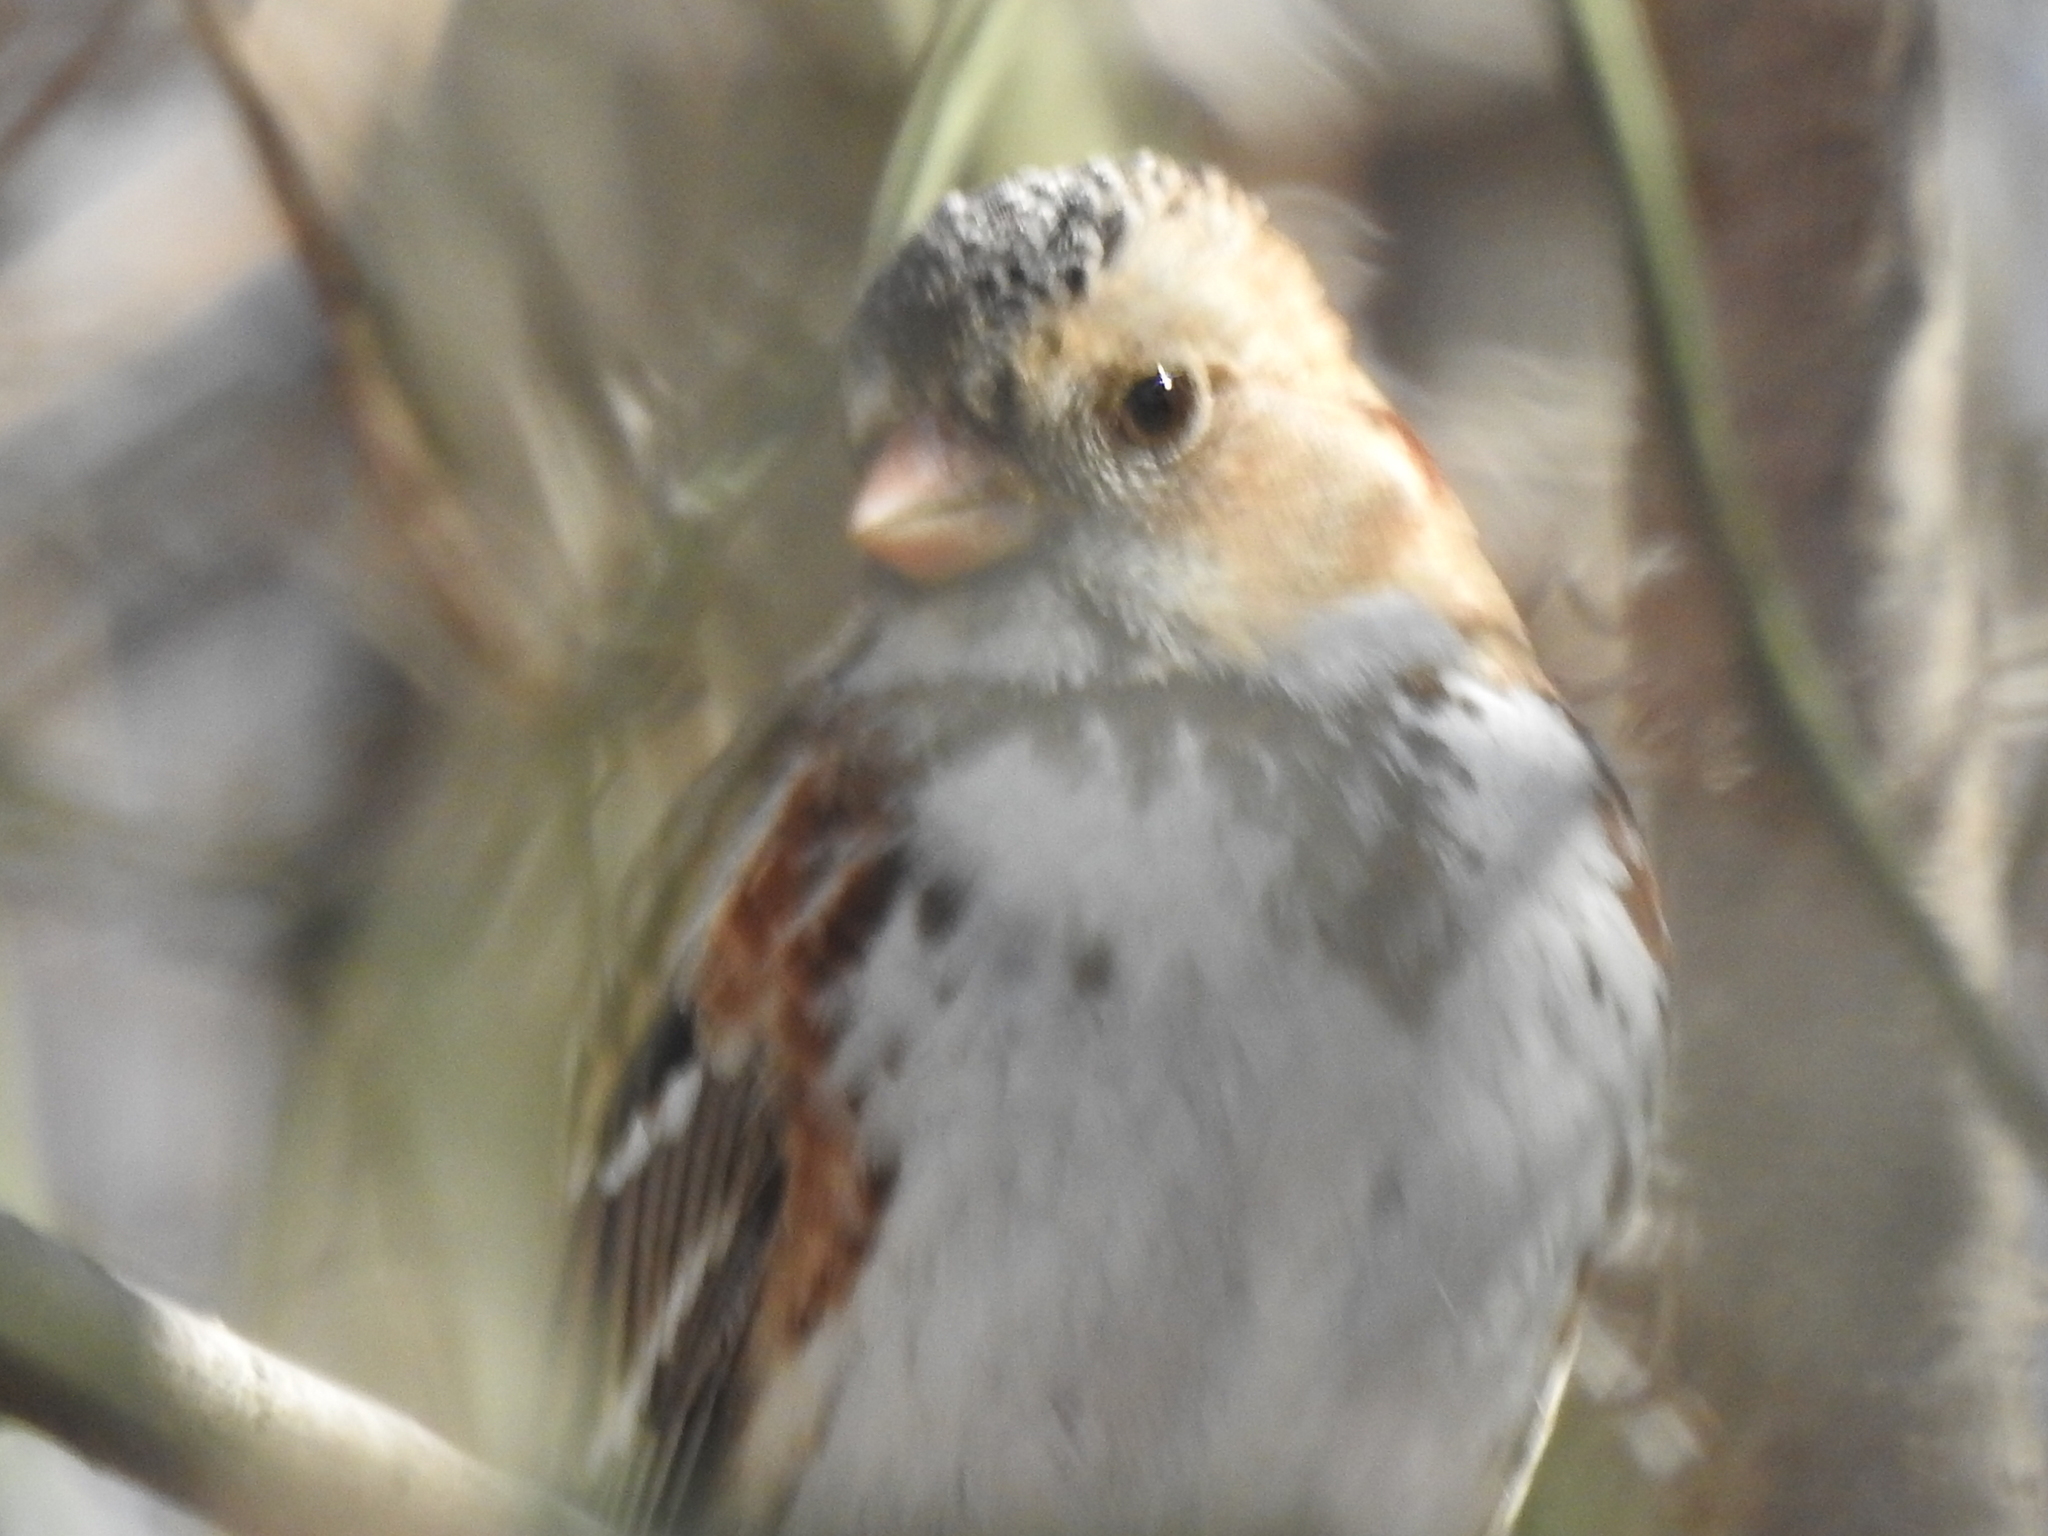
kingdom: Animalia
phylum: Chordata
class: Aves
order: Passeriformes
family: Passerellidae
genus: Zonotrichia
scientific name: Zonotrichia querula
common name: Harris's sparrow
